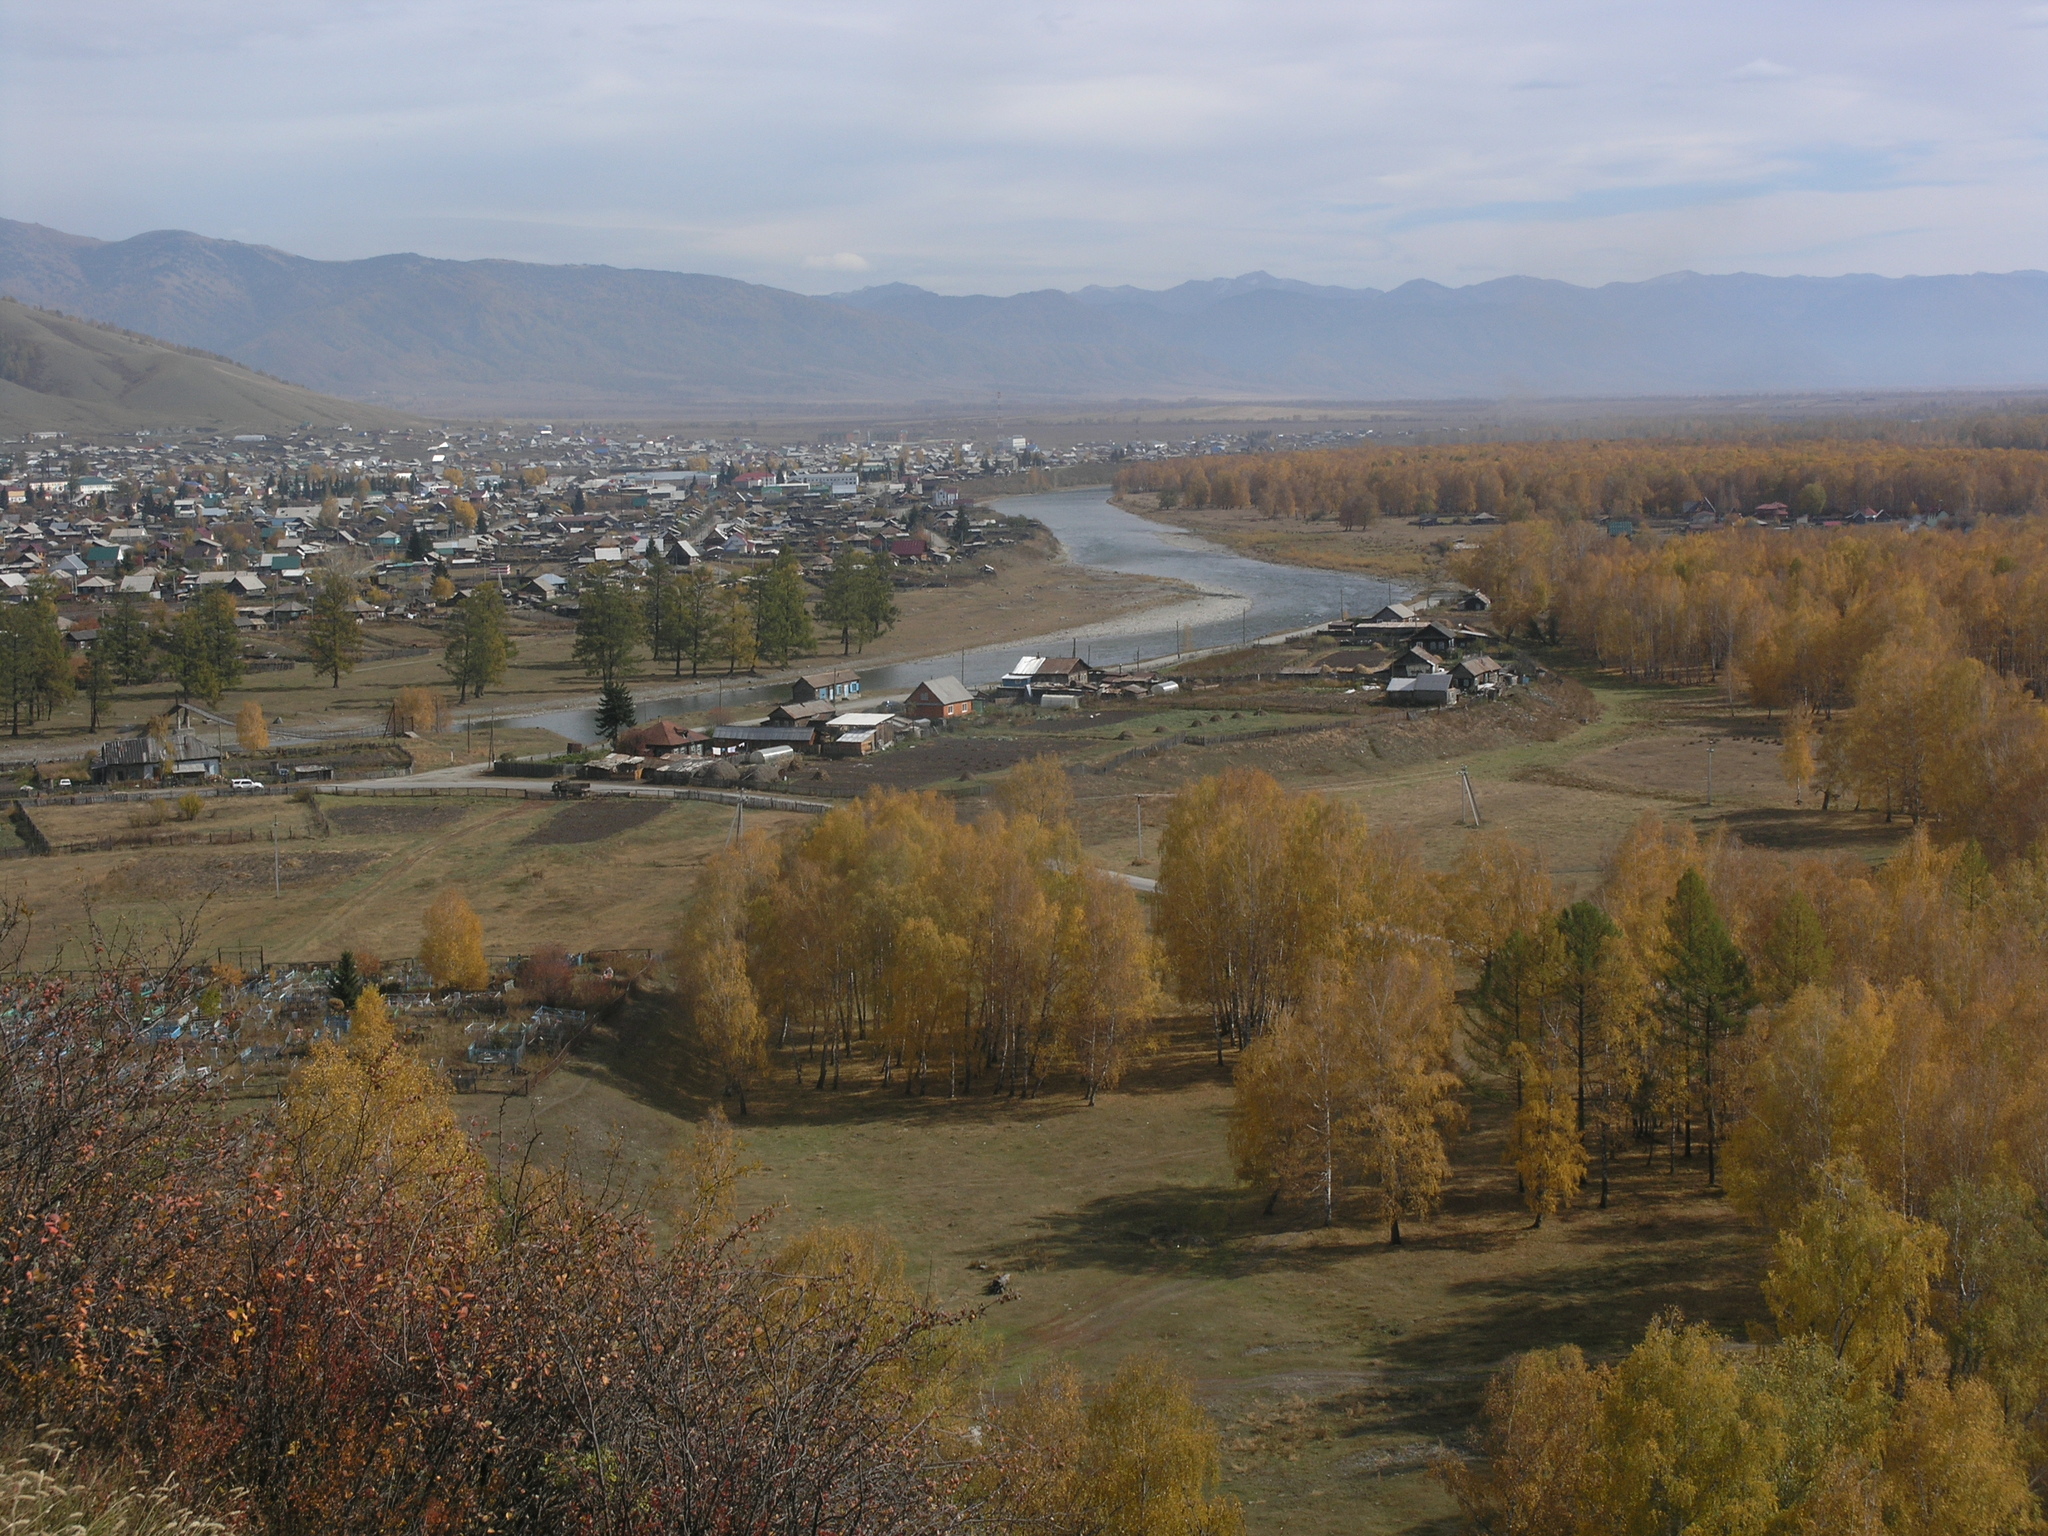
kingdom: Plantae
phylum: Tracheophyta
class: Magnoliopsida
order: Fagales
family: Betulaceae
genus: Betula
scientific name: Betula pendula
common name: Silver birch
